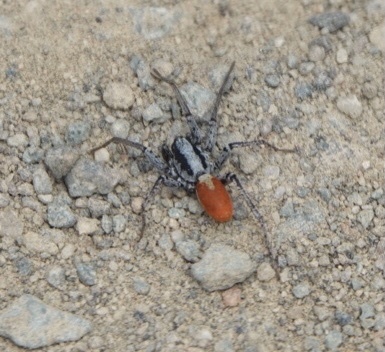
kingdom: Animalia
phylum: Arthropoda
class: Arachnida
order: Araneae
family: Corinnidae
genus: Castianeira
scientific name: Castianeira occidens
